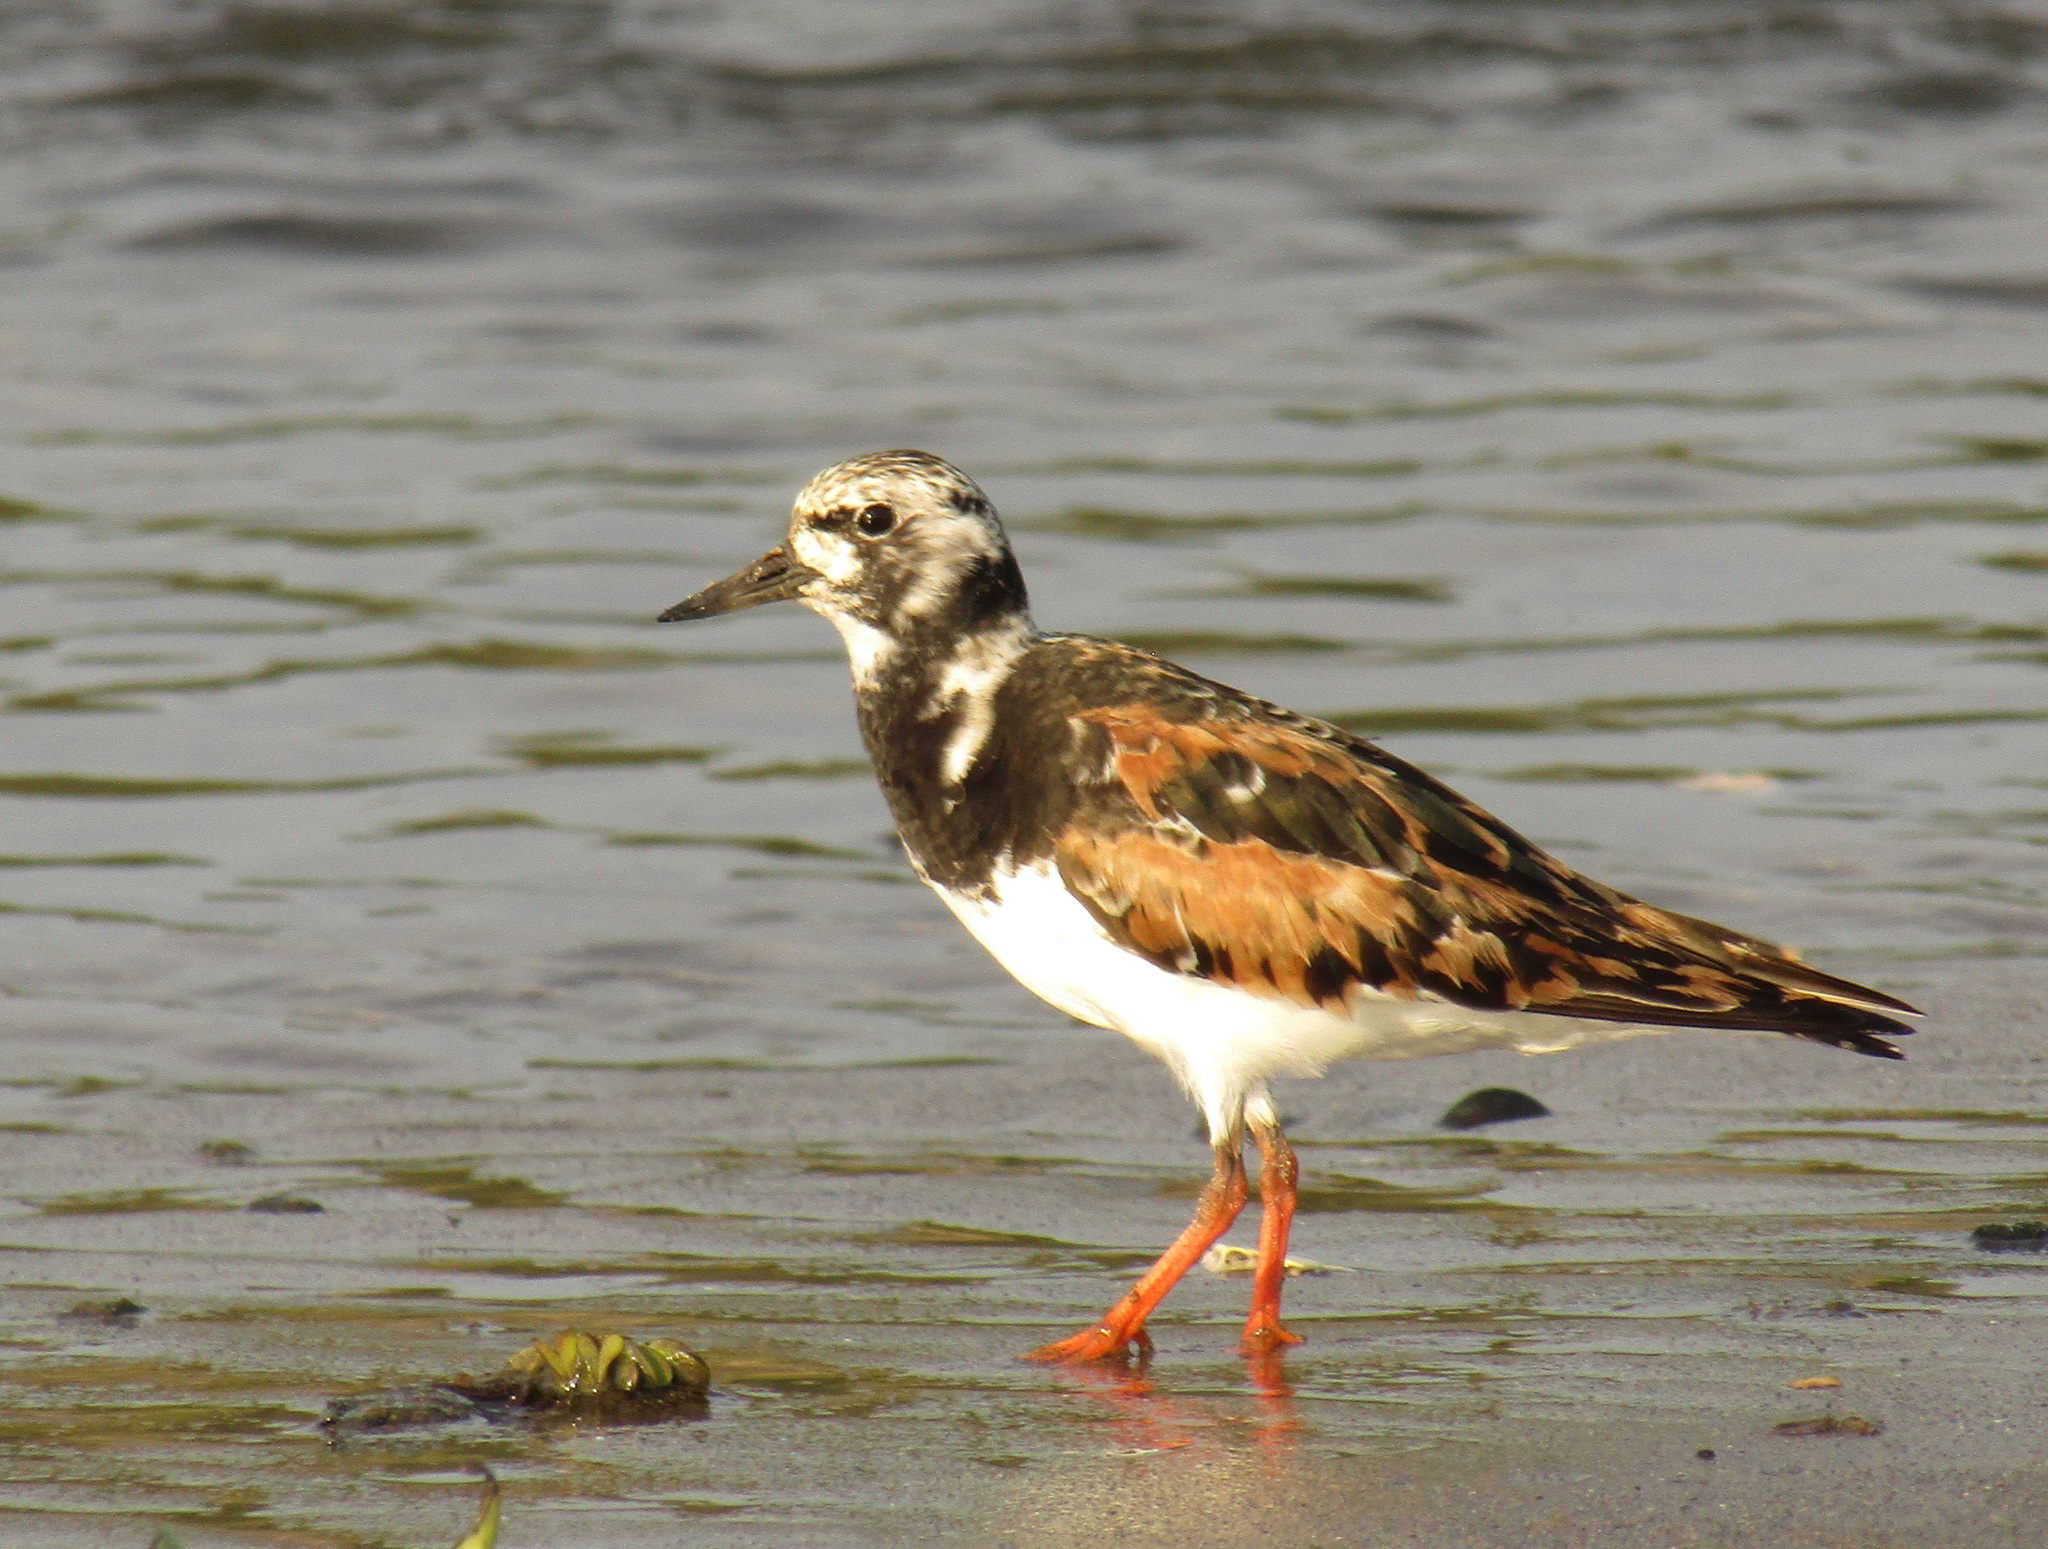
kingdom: Animalia
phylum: Chordata
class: Aves
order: Charadriiformes
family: Scolopacidae
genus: Arenaria
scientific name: Arenaria interpres
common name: Ruddy turnstone
